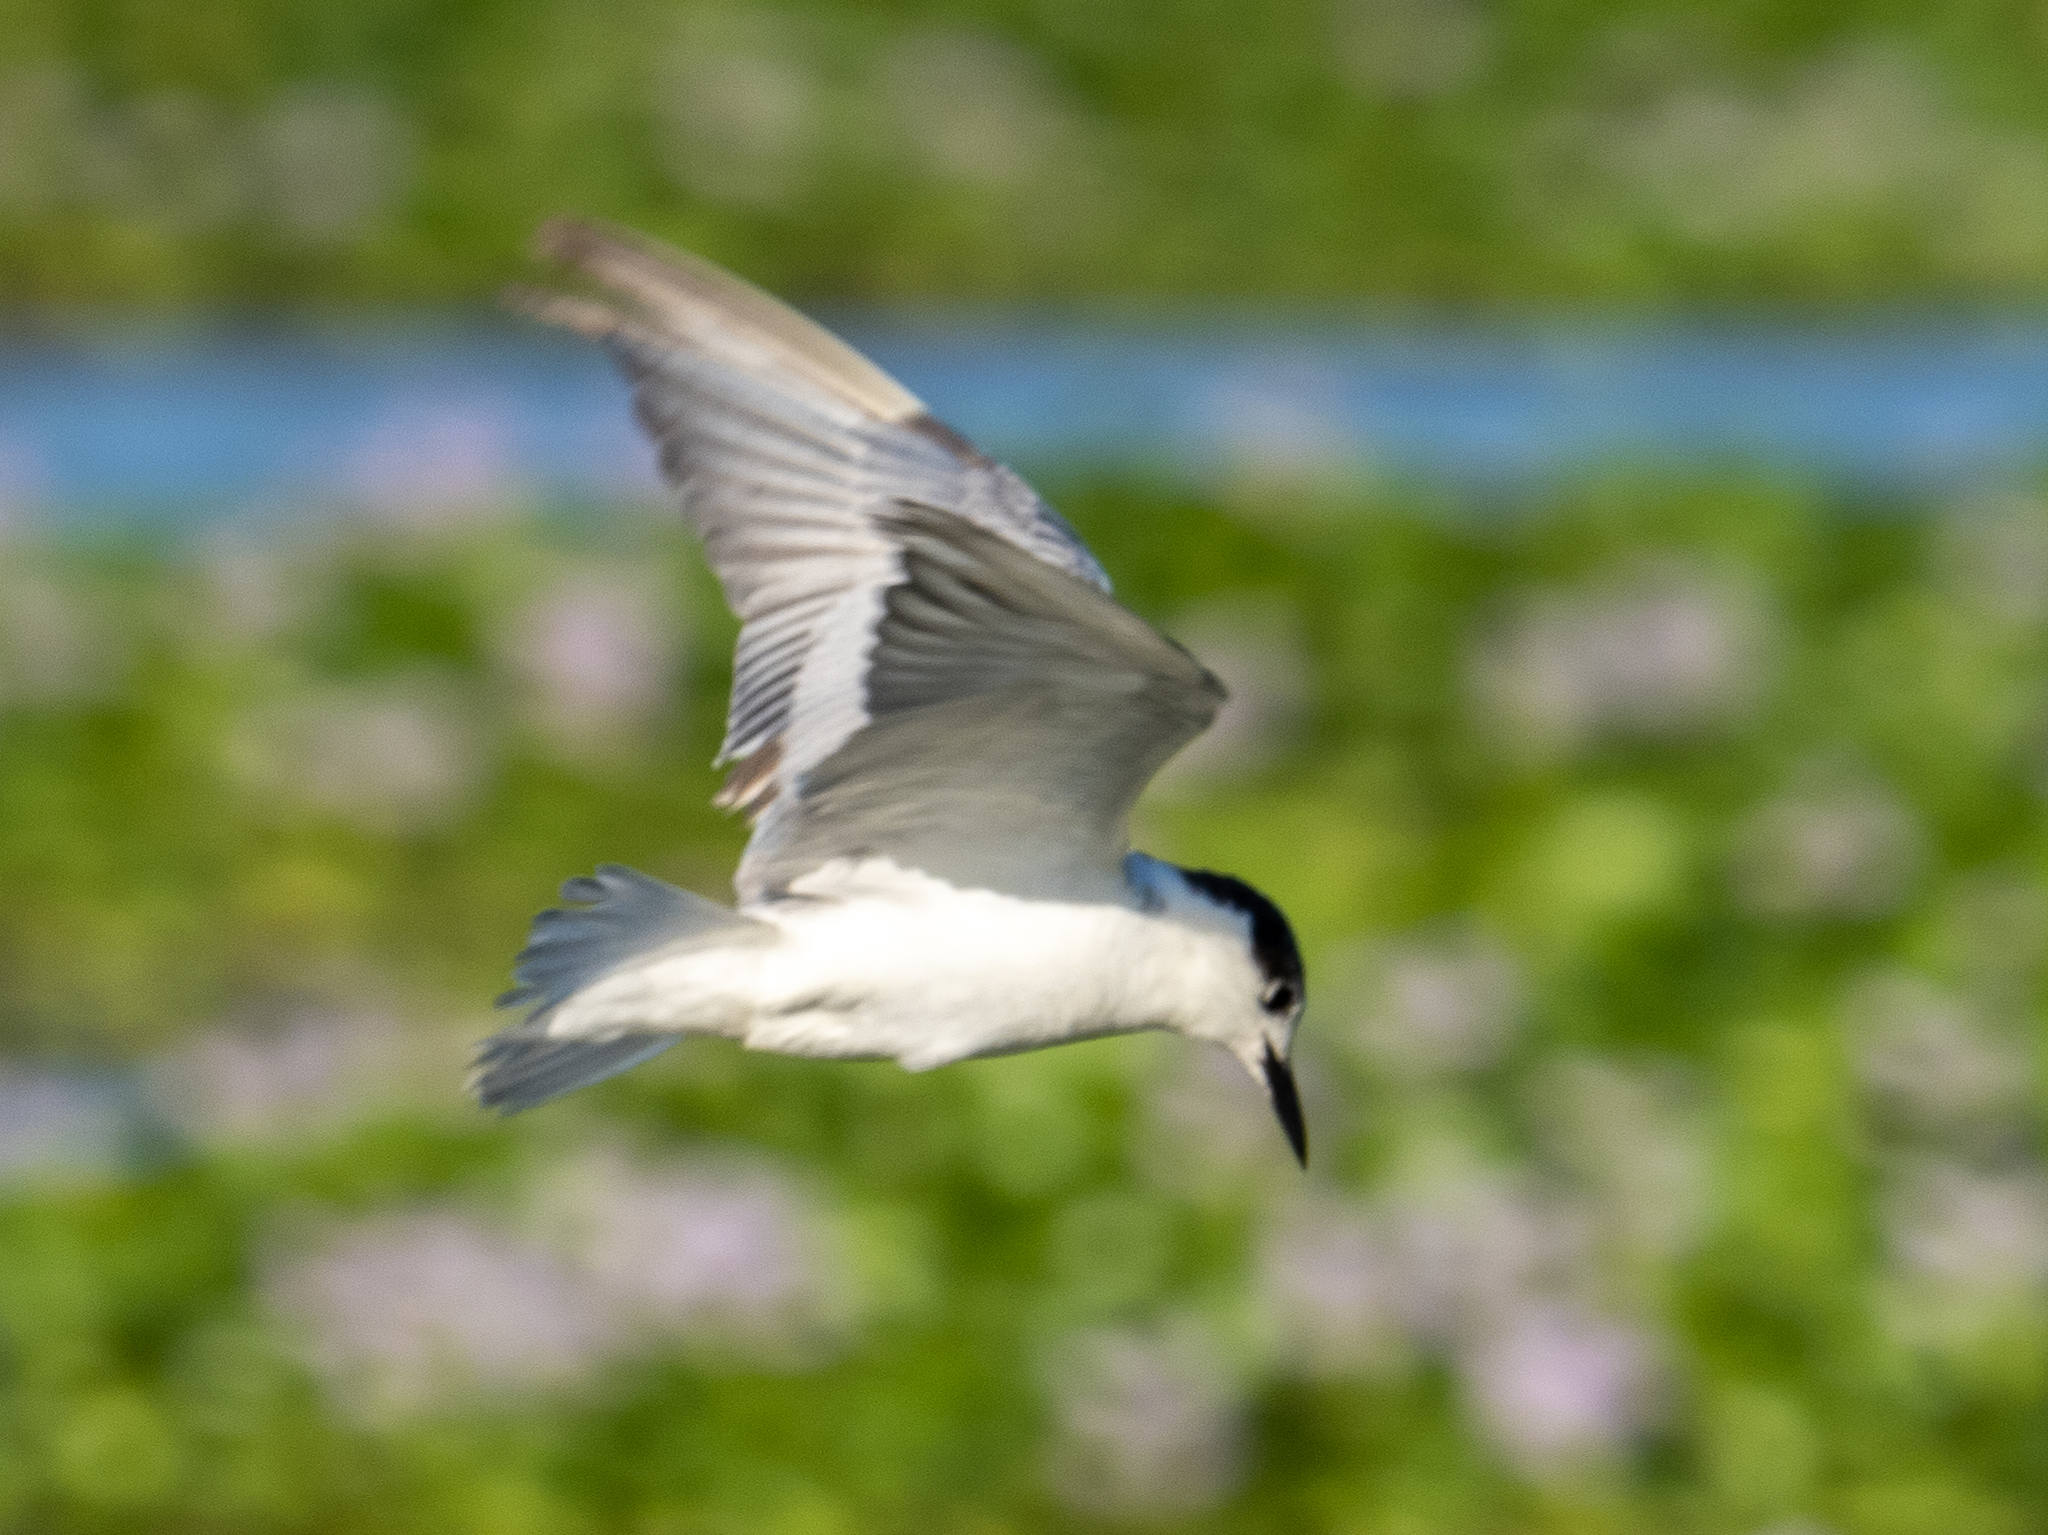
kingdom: Animalia
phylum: Chordata
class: Aves
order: Charadriiformes
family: Laridae
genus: Chlidonias
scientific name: Chlidonias hybrida
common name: Whiskered tern
